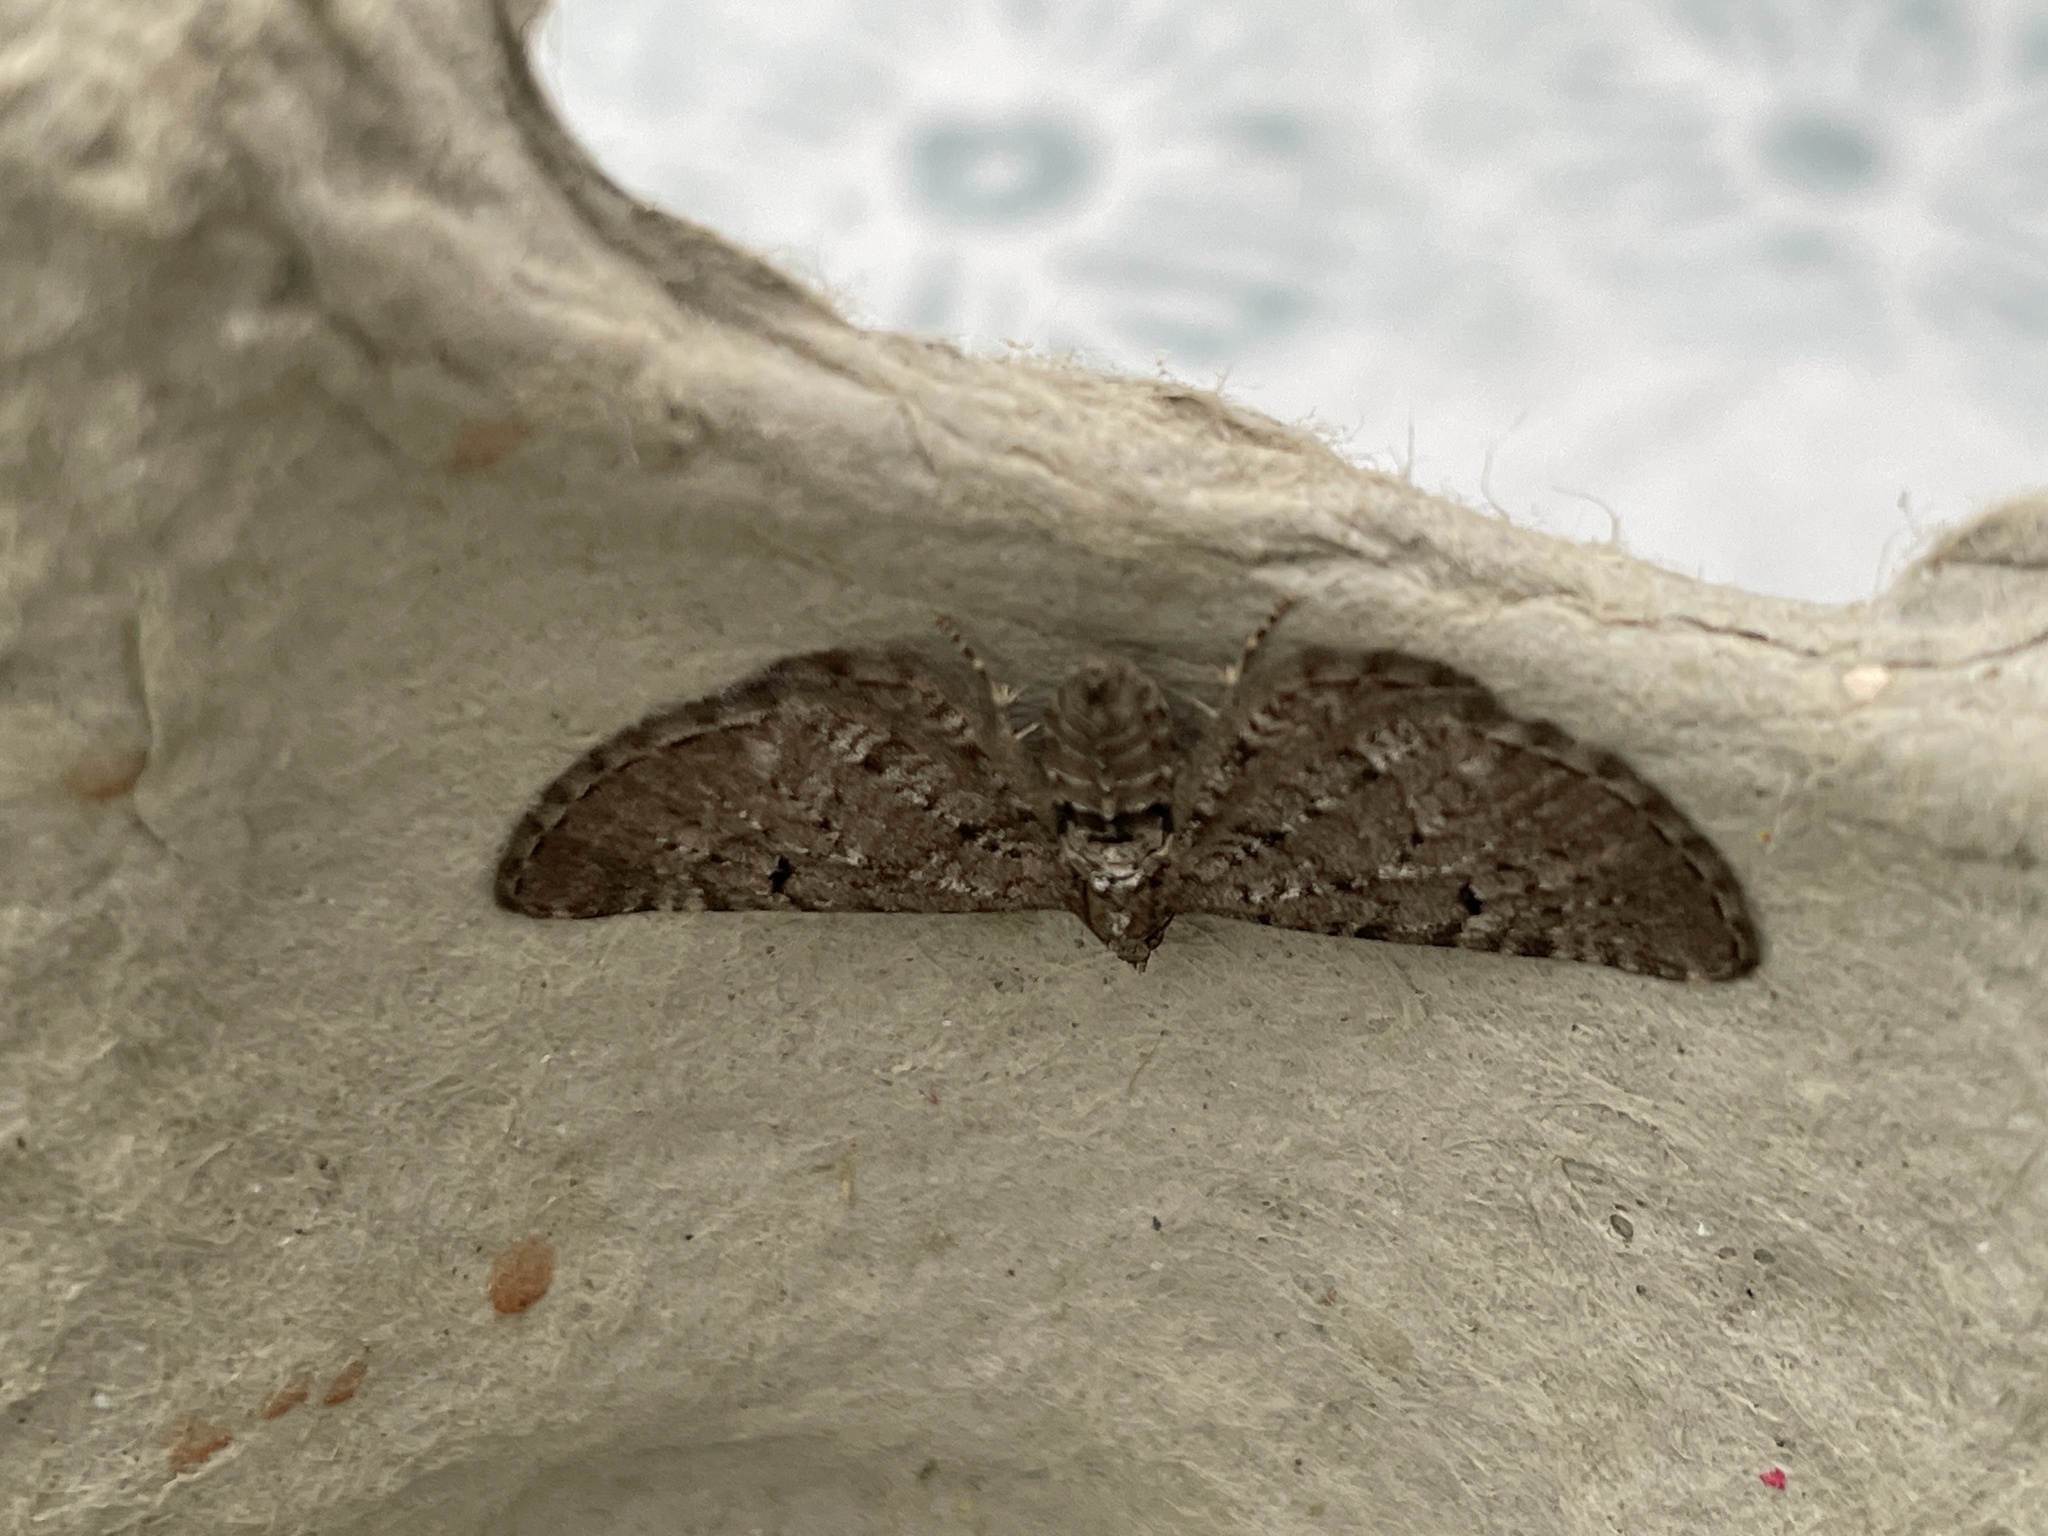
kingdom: Animalia
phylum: Arthropoda
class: Insecta
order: Lepidoptera
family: Geometridae
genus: Eupithecia
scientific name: Eupithecia intricata
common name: Freyers pug
